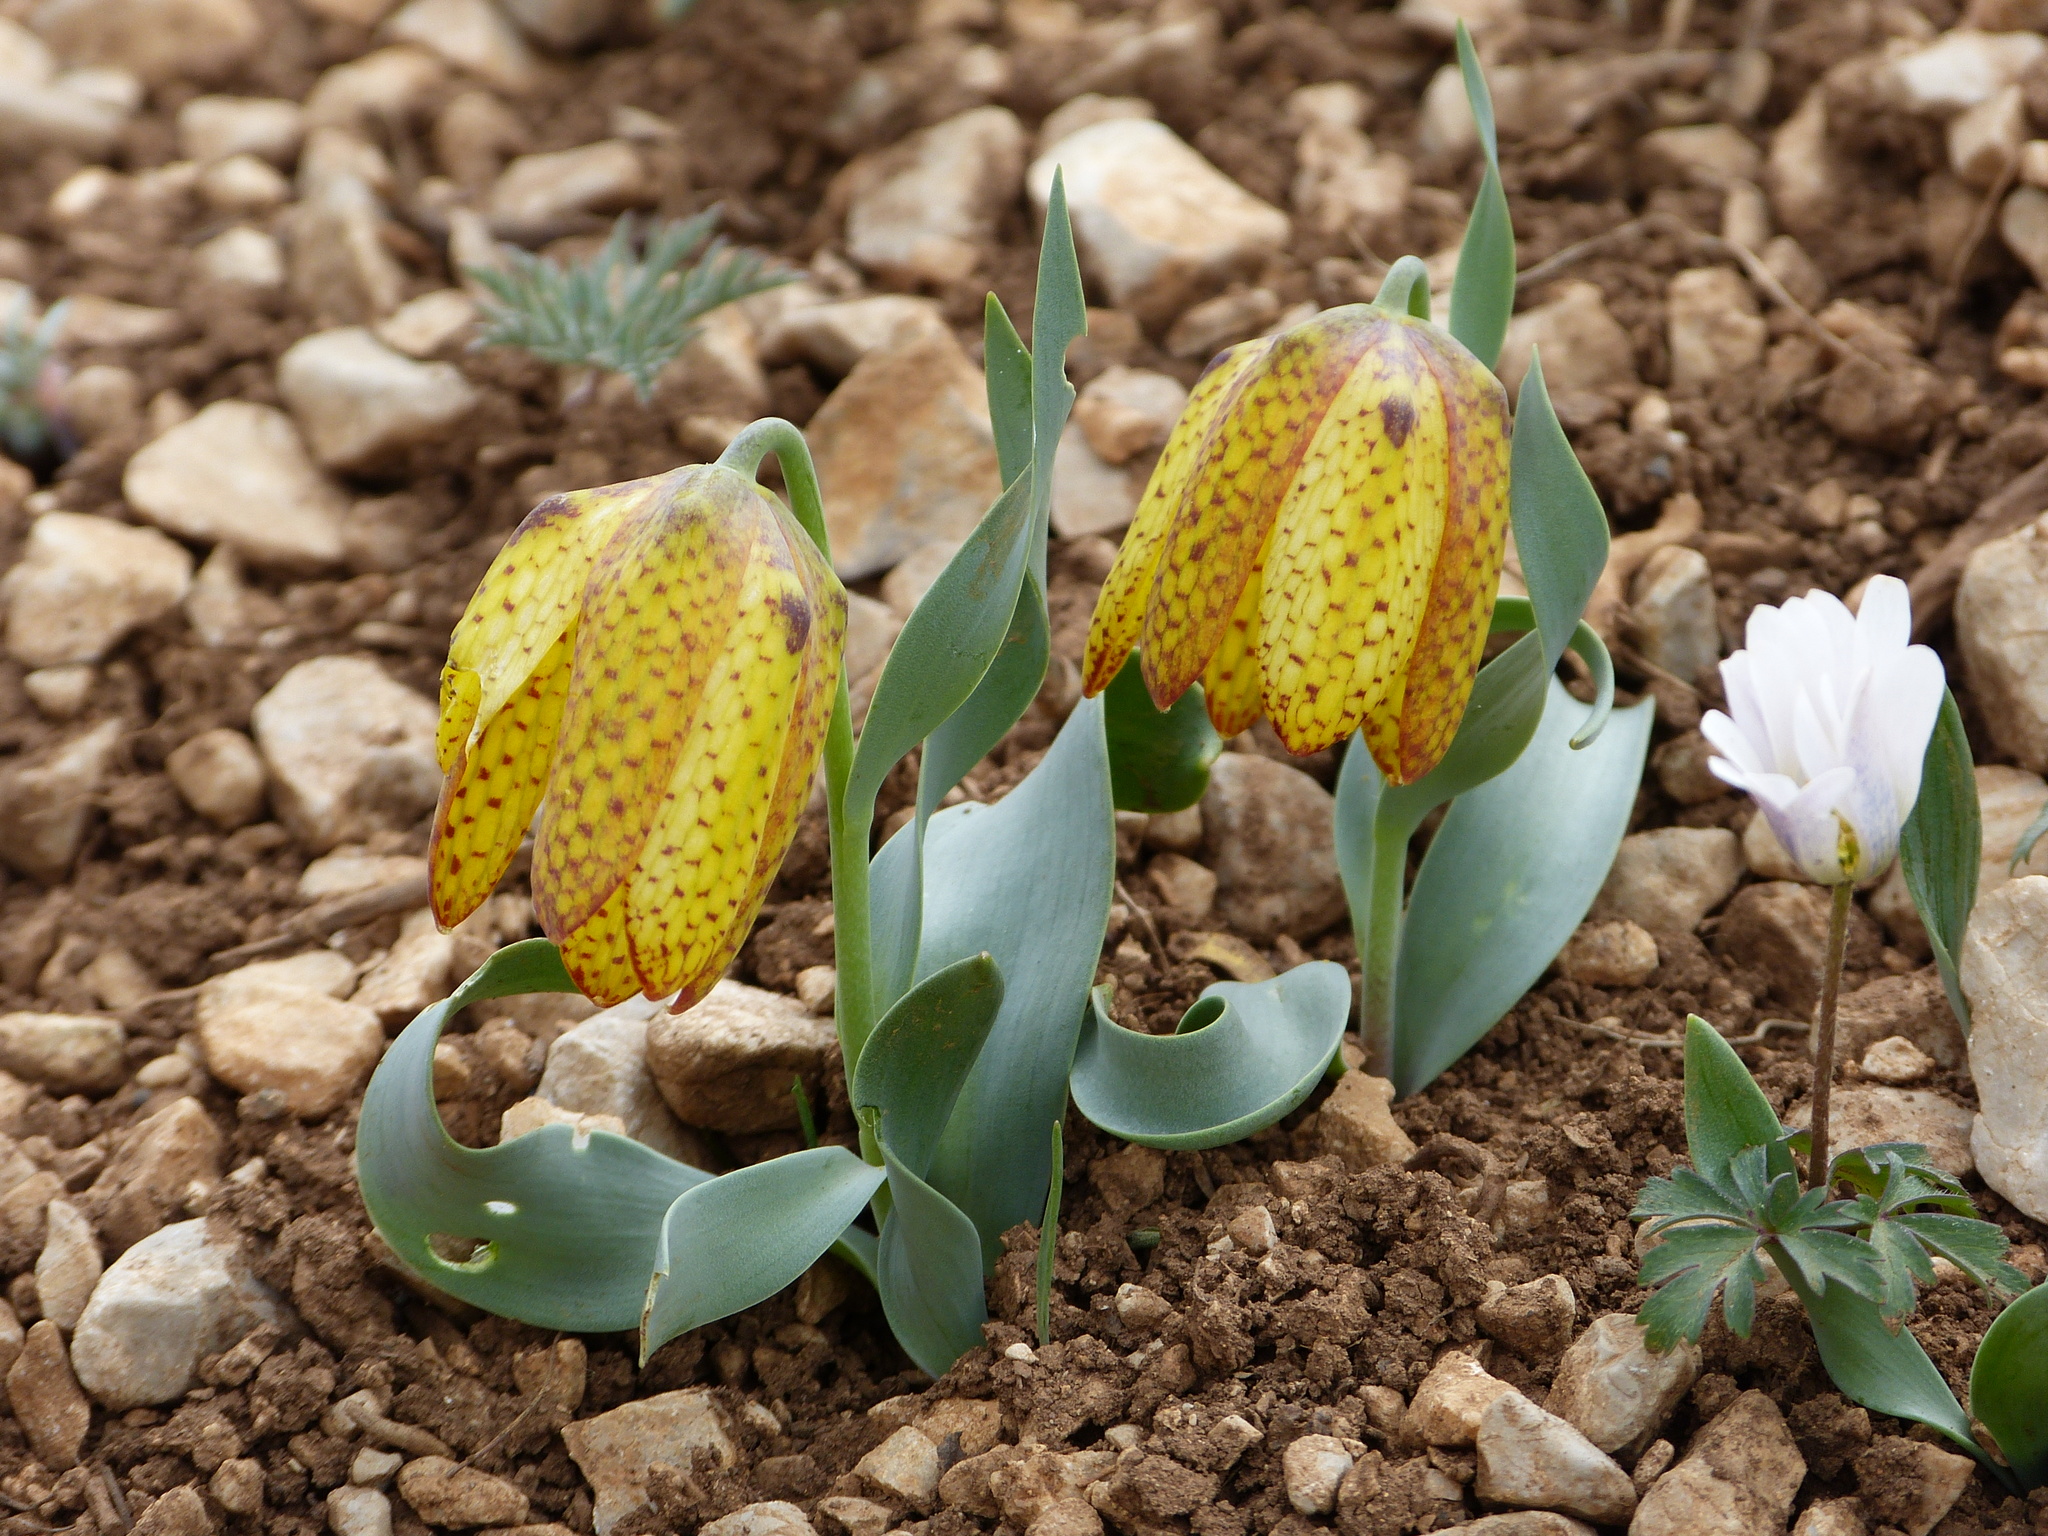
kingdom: Plantae
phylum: Tracheophyta
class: Liliopsida
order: Liliales
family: Liliaceae
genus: Fritillaria
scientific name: Fritillaria aurea
